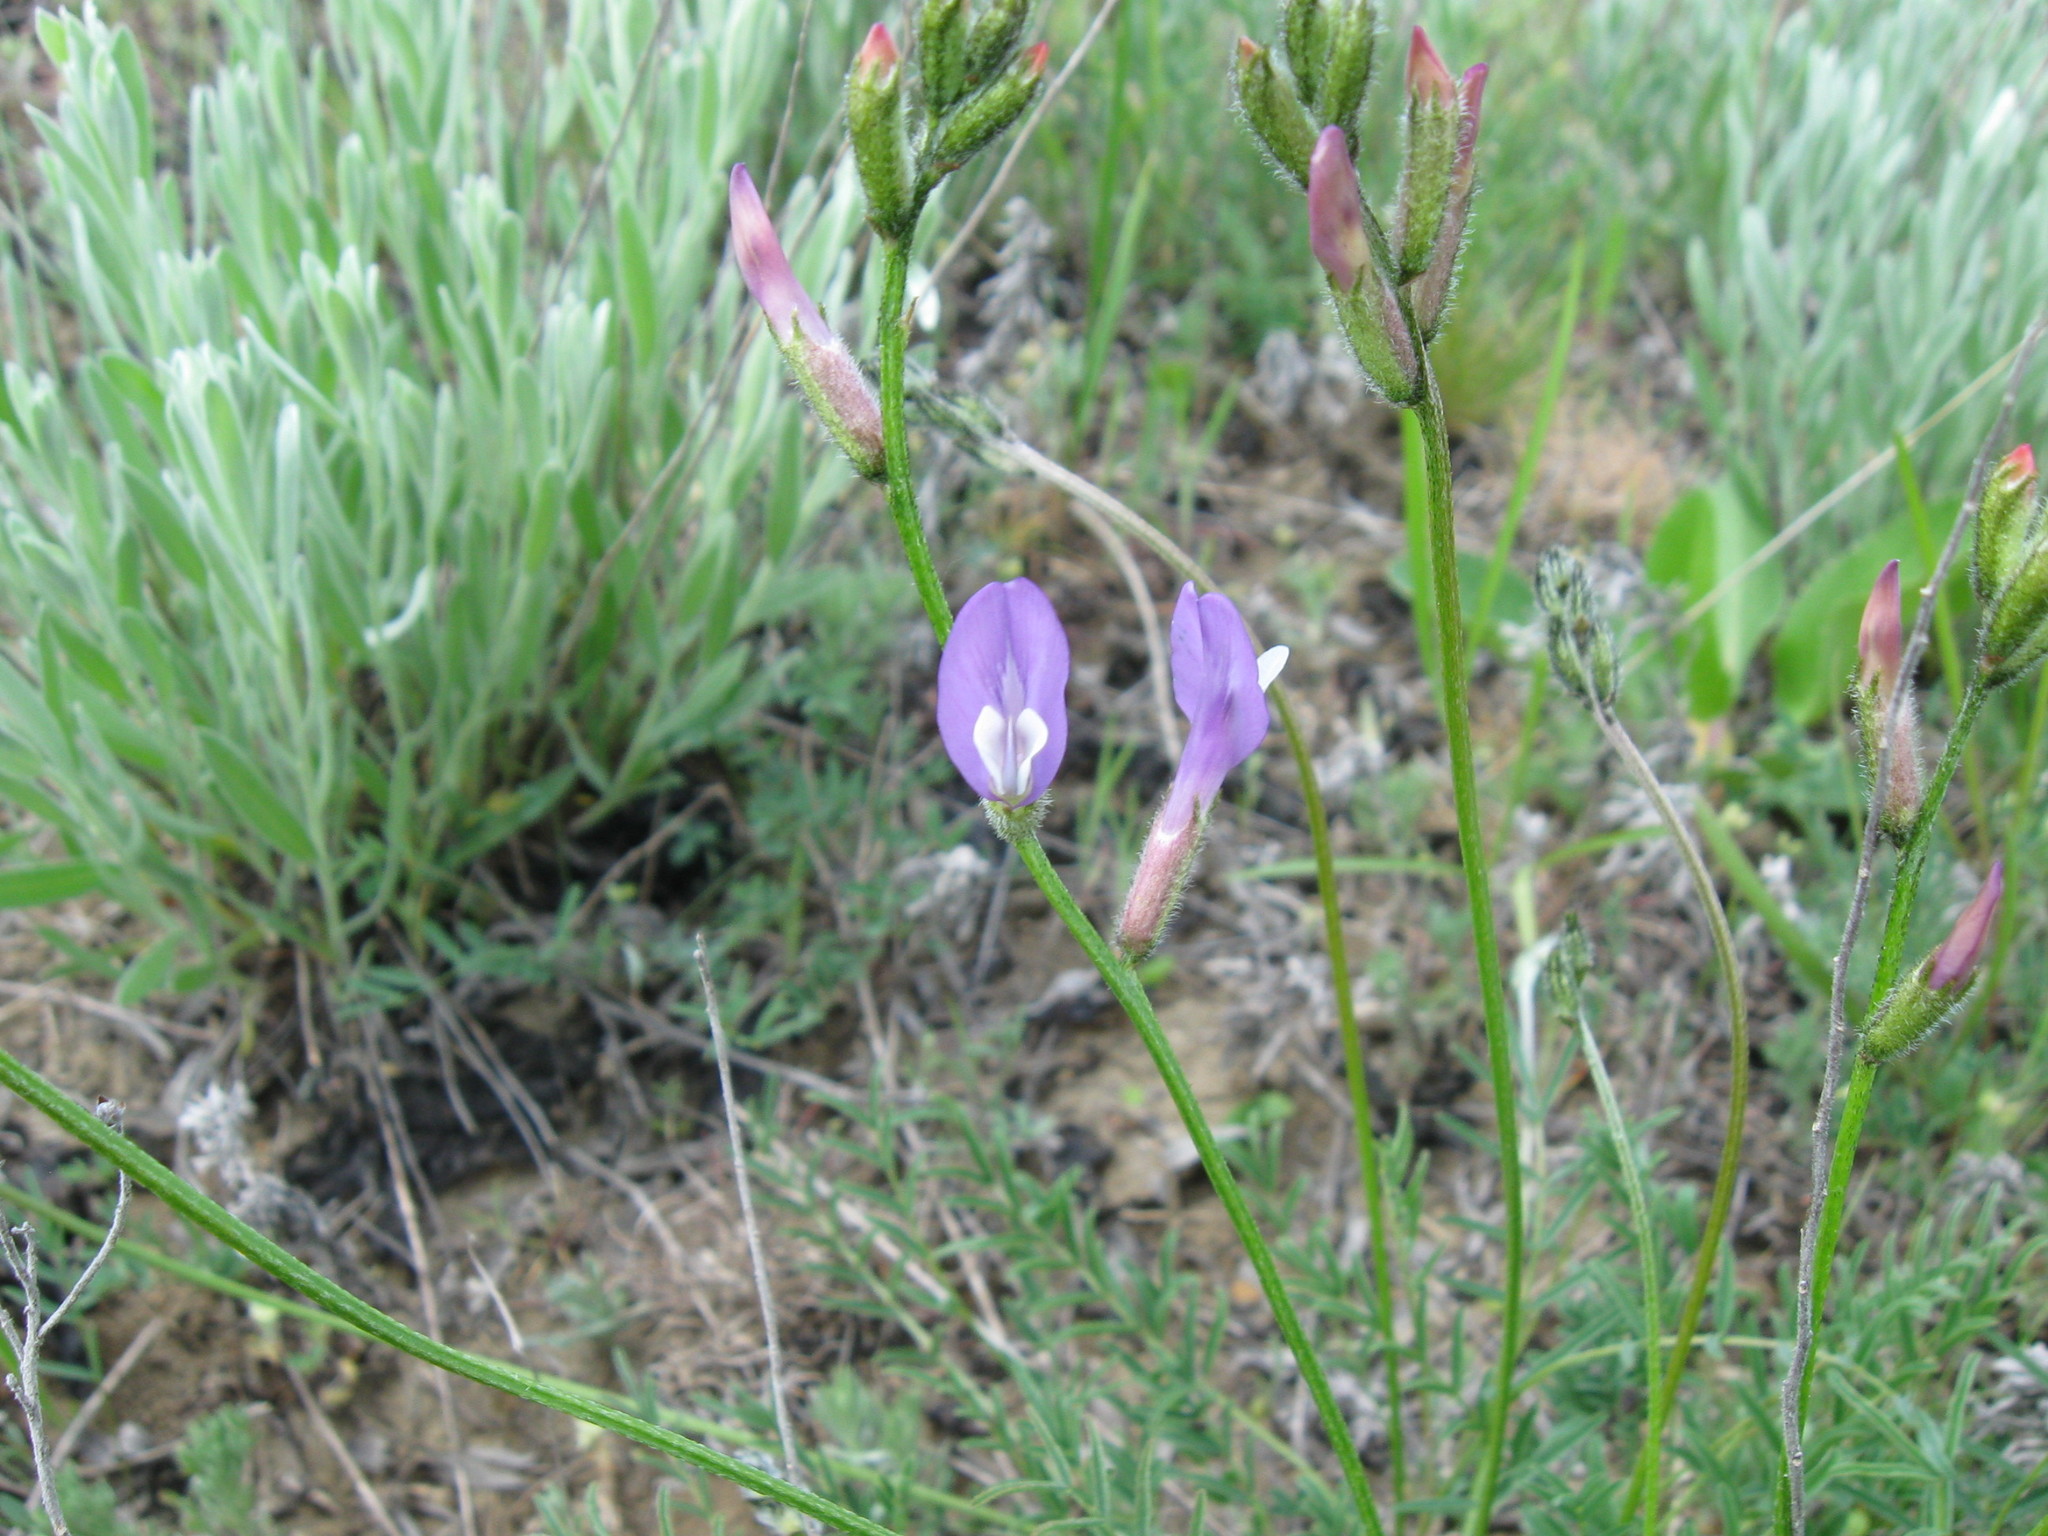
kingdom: Plantae
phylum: Tracheophyta
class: Magnoliopsida
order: Fabales
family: Fabaceae
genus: Astragalus
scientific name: Astragalus skvortsovii
